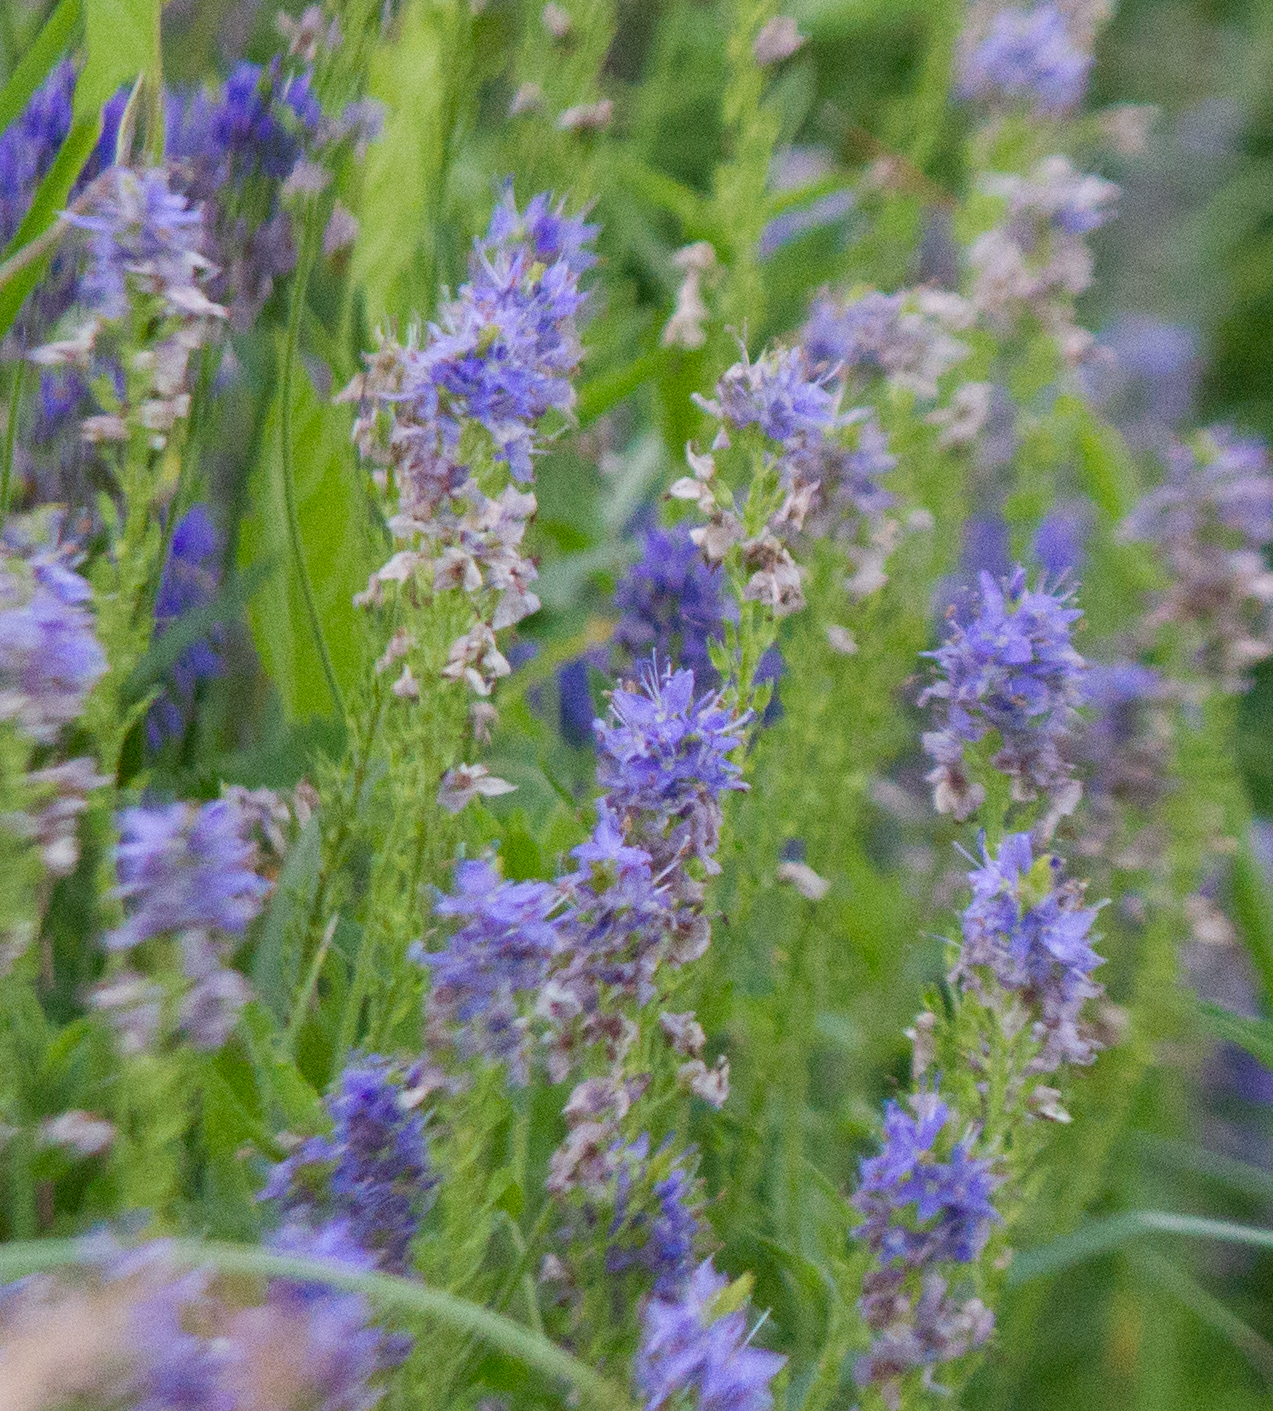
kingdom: Plantae
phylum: Tracheophyta
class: Magnoliopsida
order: Lamiales
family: Plantaginaceae
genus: Veronica
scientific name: Veronica teucrium
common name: Large speedwell
